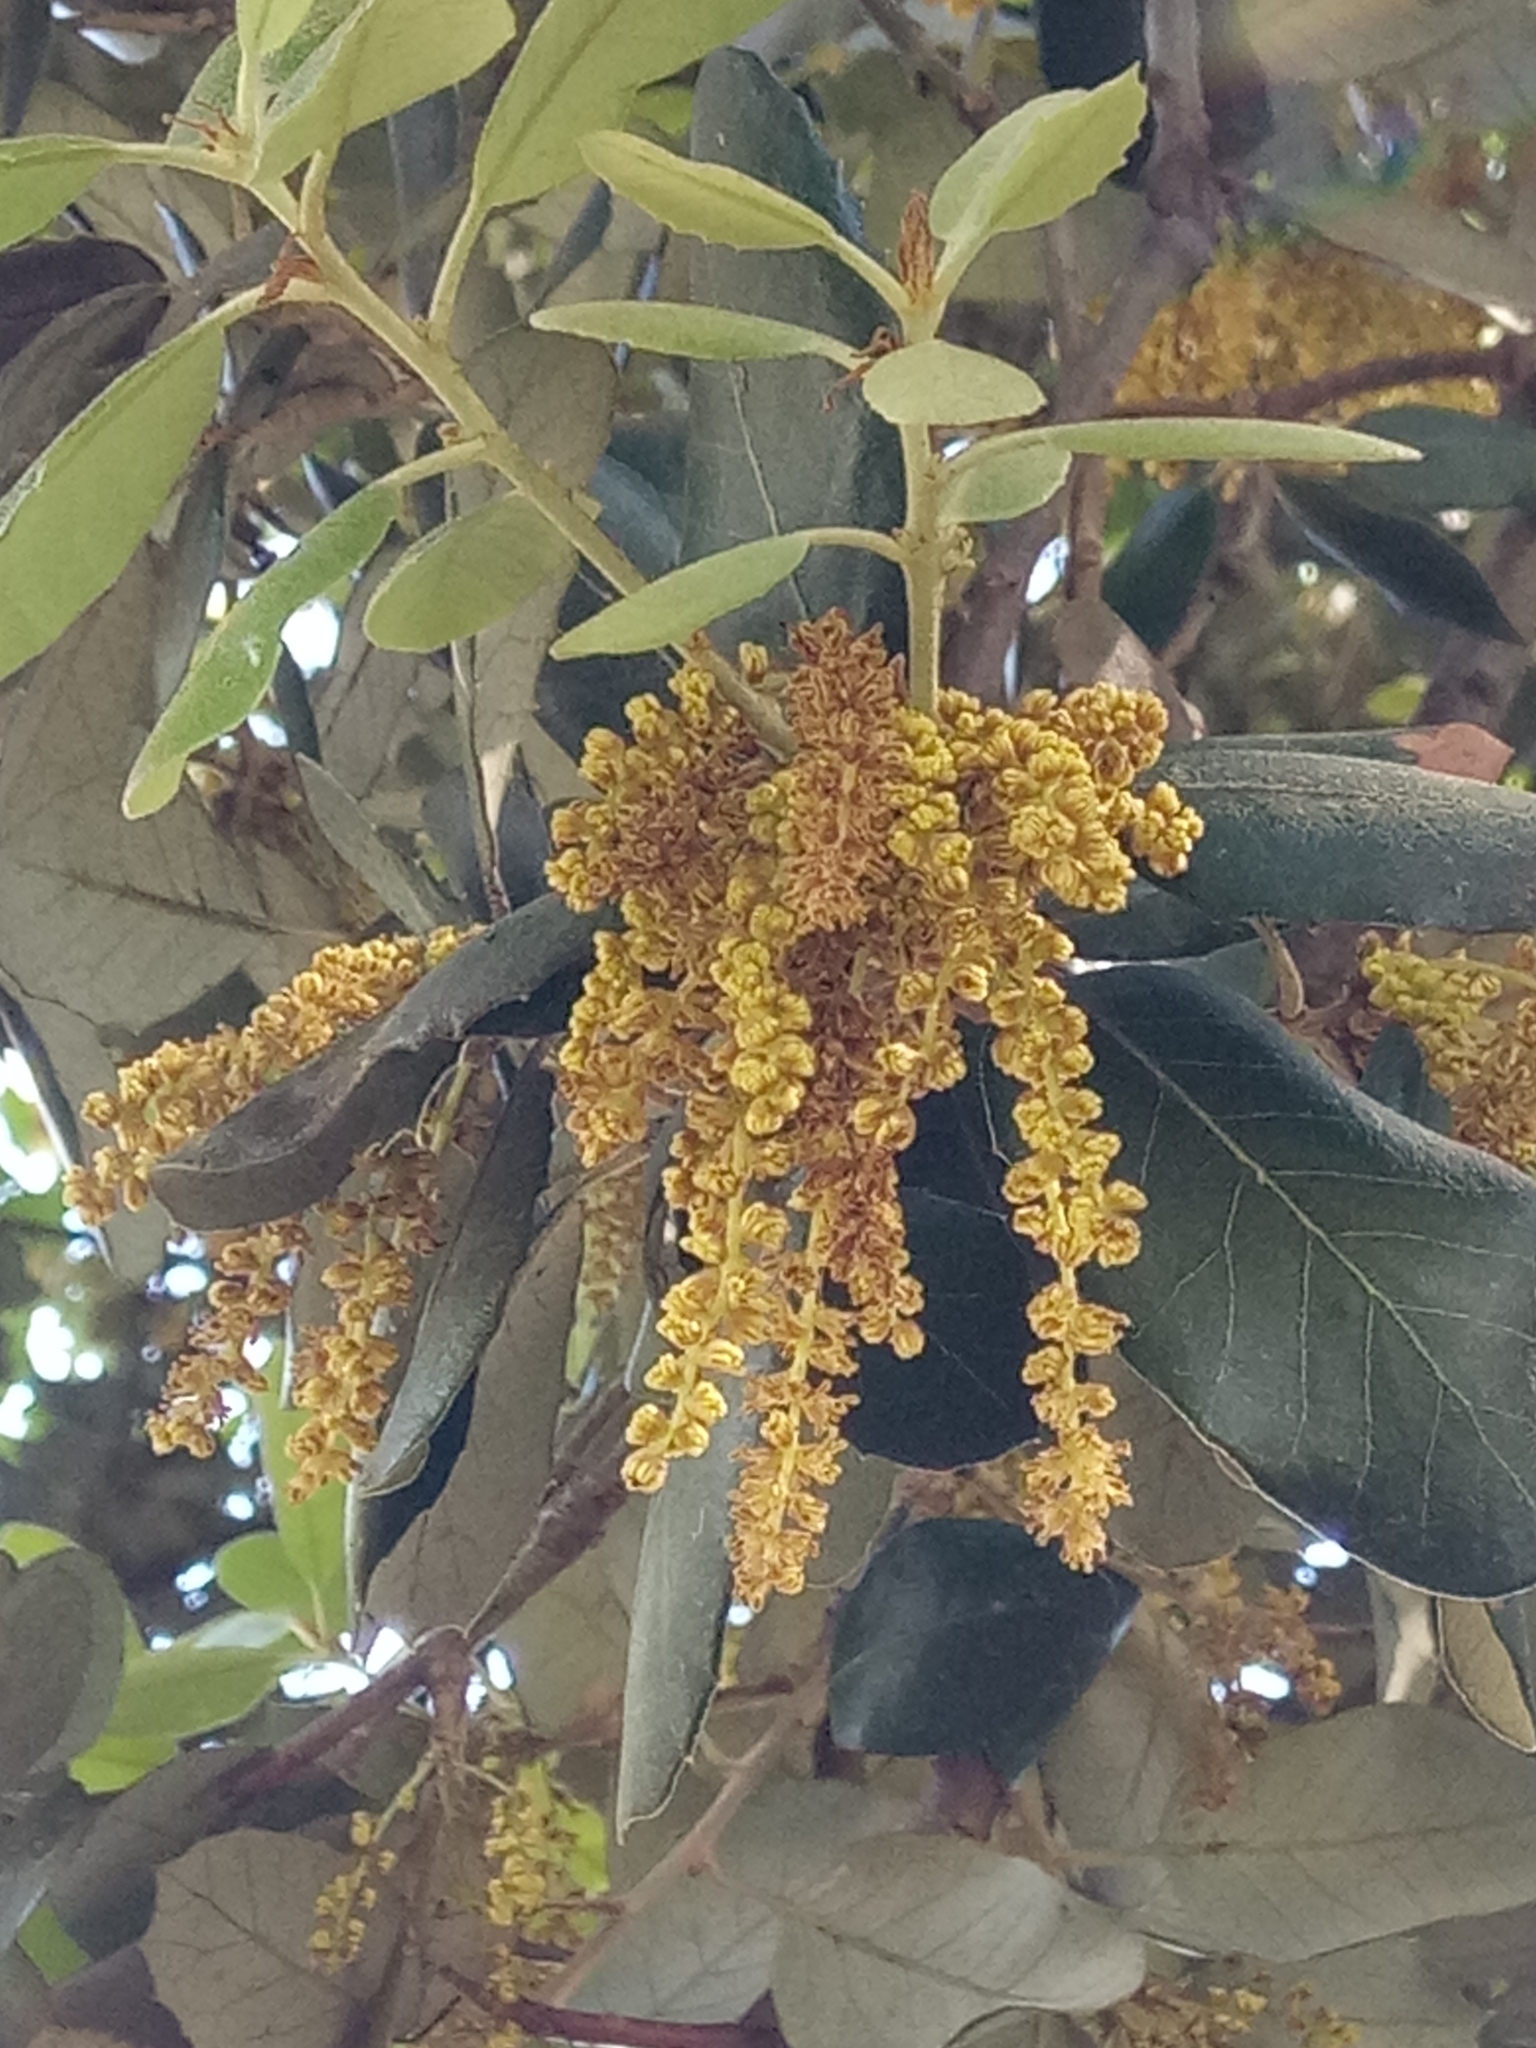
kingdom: Plantae
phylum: Tracheophyta
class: Magnoliopsida
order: Fagales
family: Fagaceae
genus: Quercus
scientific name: Quercus rotundifolia
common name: Holm oak
